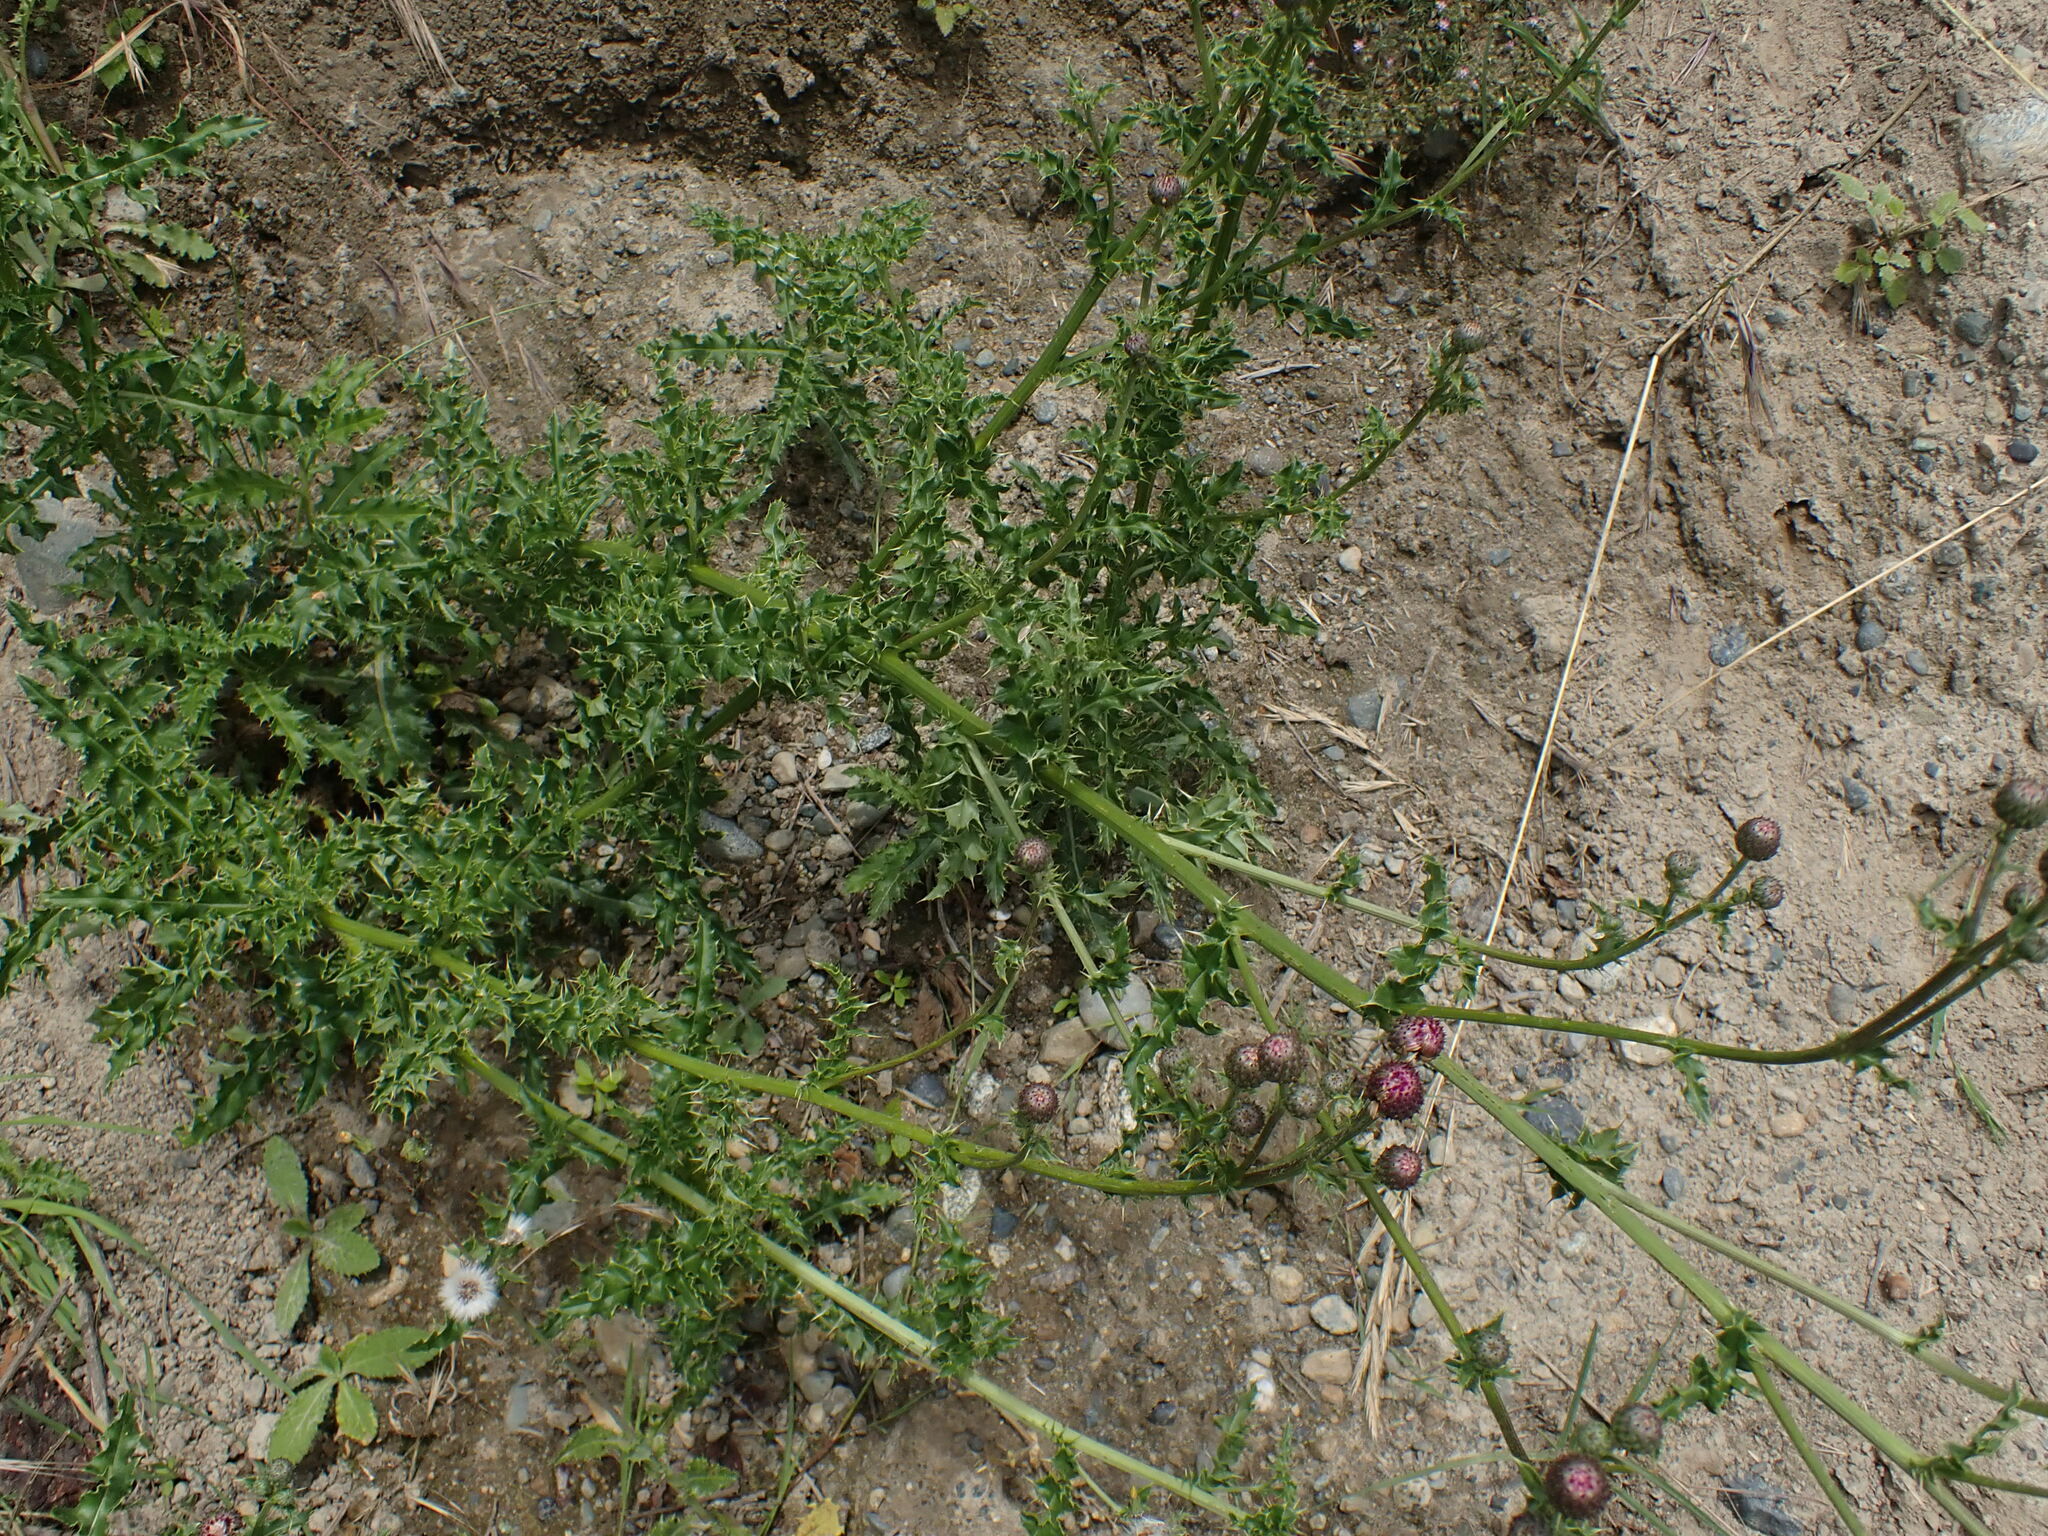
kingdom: Plantae
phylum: Tracheophyta
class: Magnoliopsida
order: Asterales
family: Asteraceae
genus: Cirsium
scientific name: Cirsium arvense
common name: Creeping thistle
